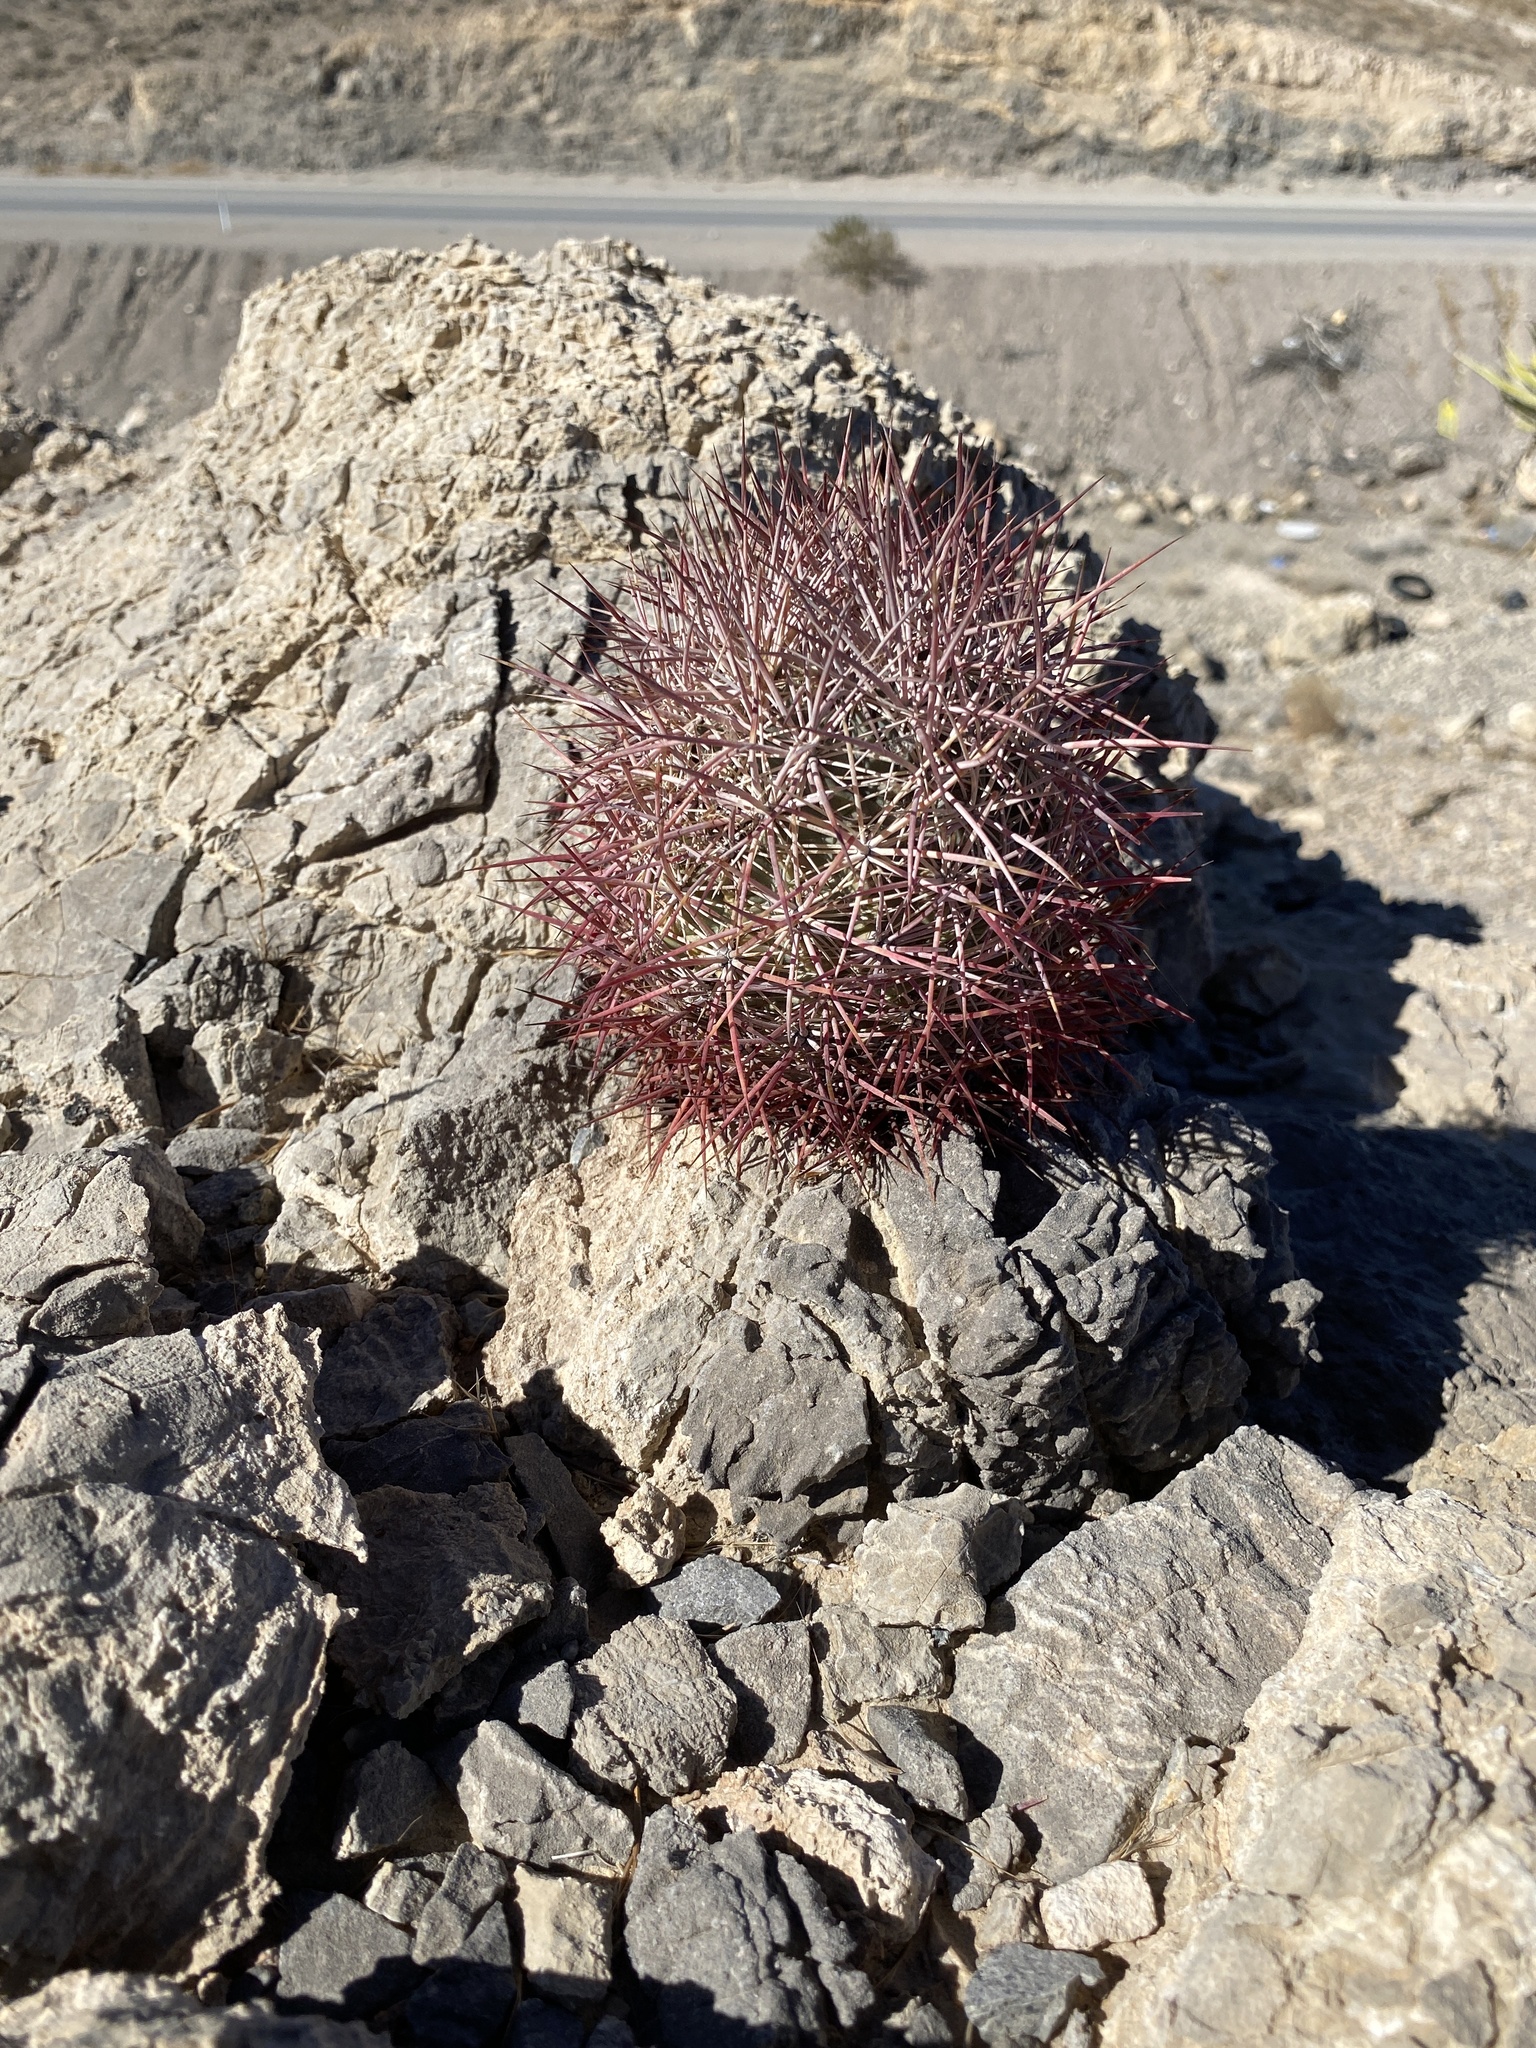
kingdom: Plantae
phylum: Tracheophyta
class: Magnoliopsida
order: Caryophyllales
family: Cactaceae
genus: Sclerocactus
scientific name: Sclerocactus johnsonii
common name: Eight-spine fishhook cactus
